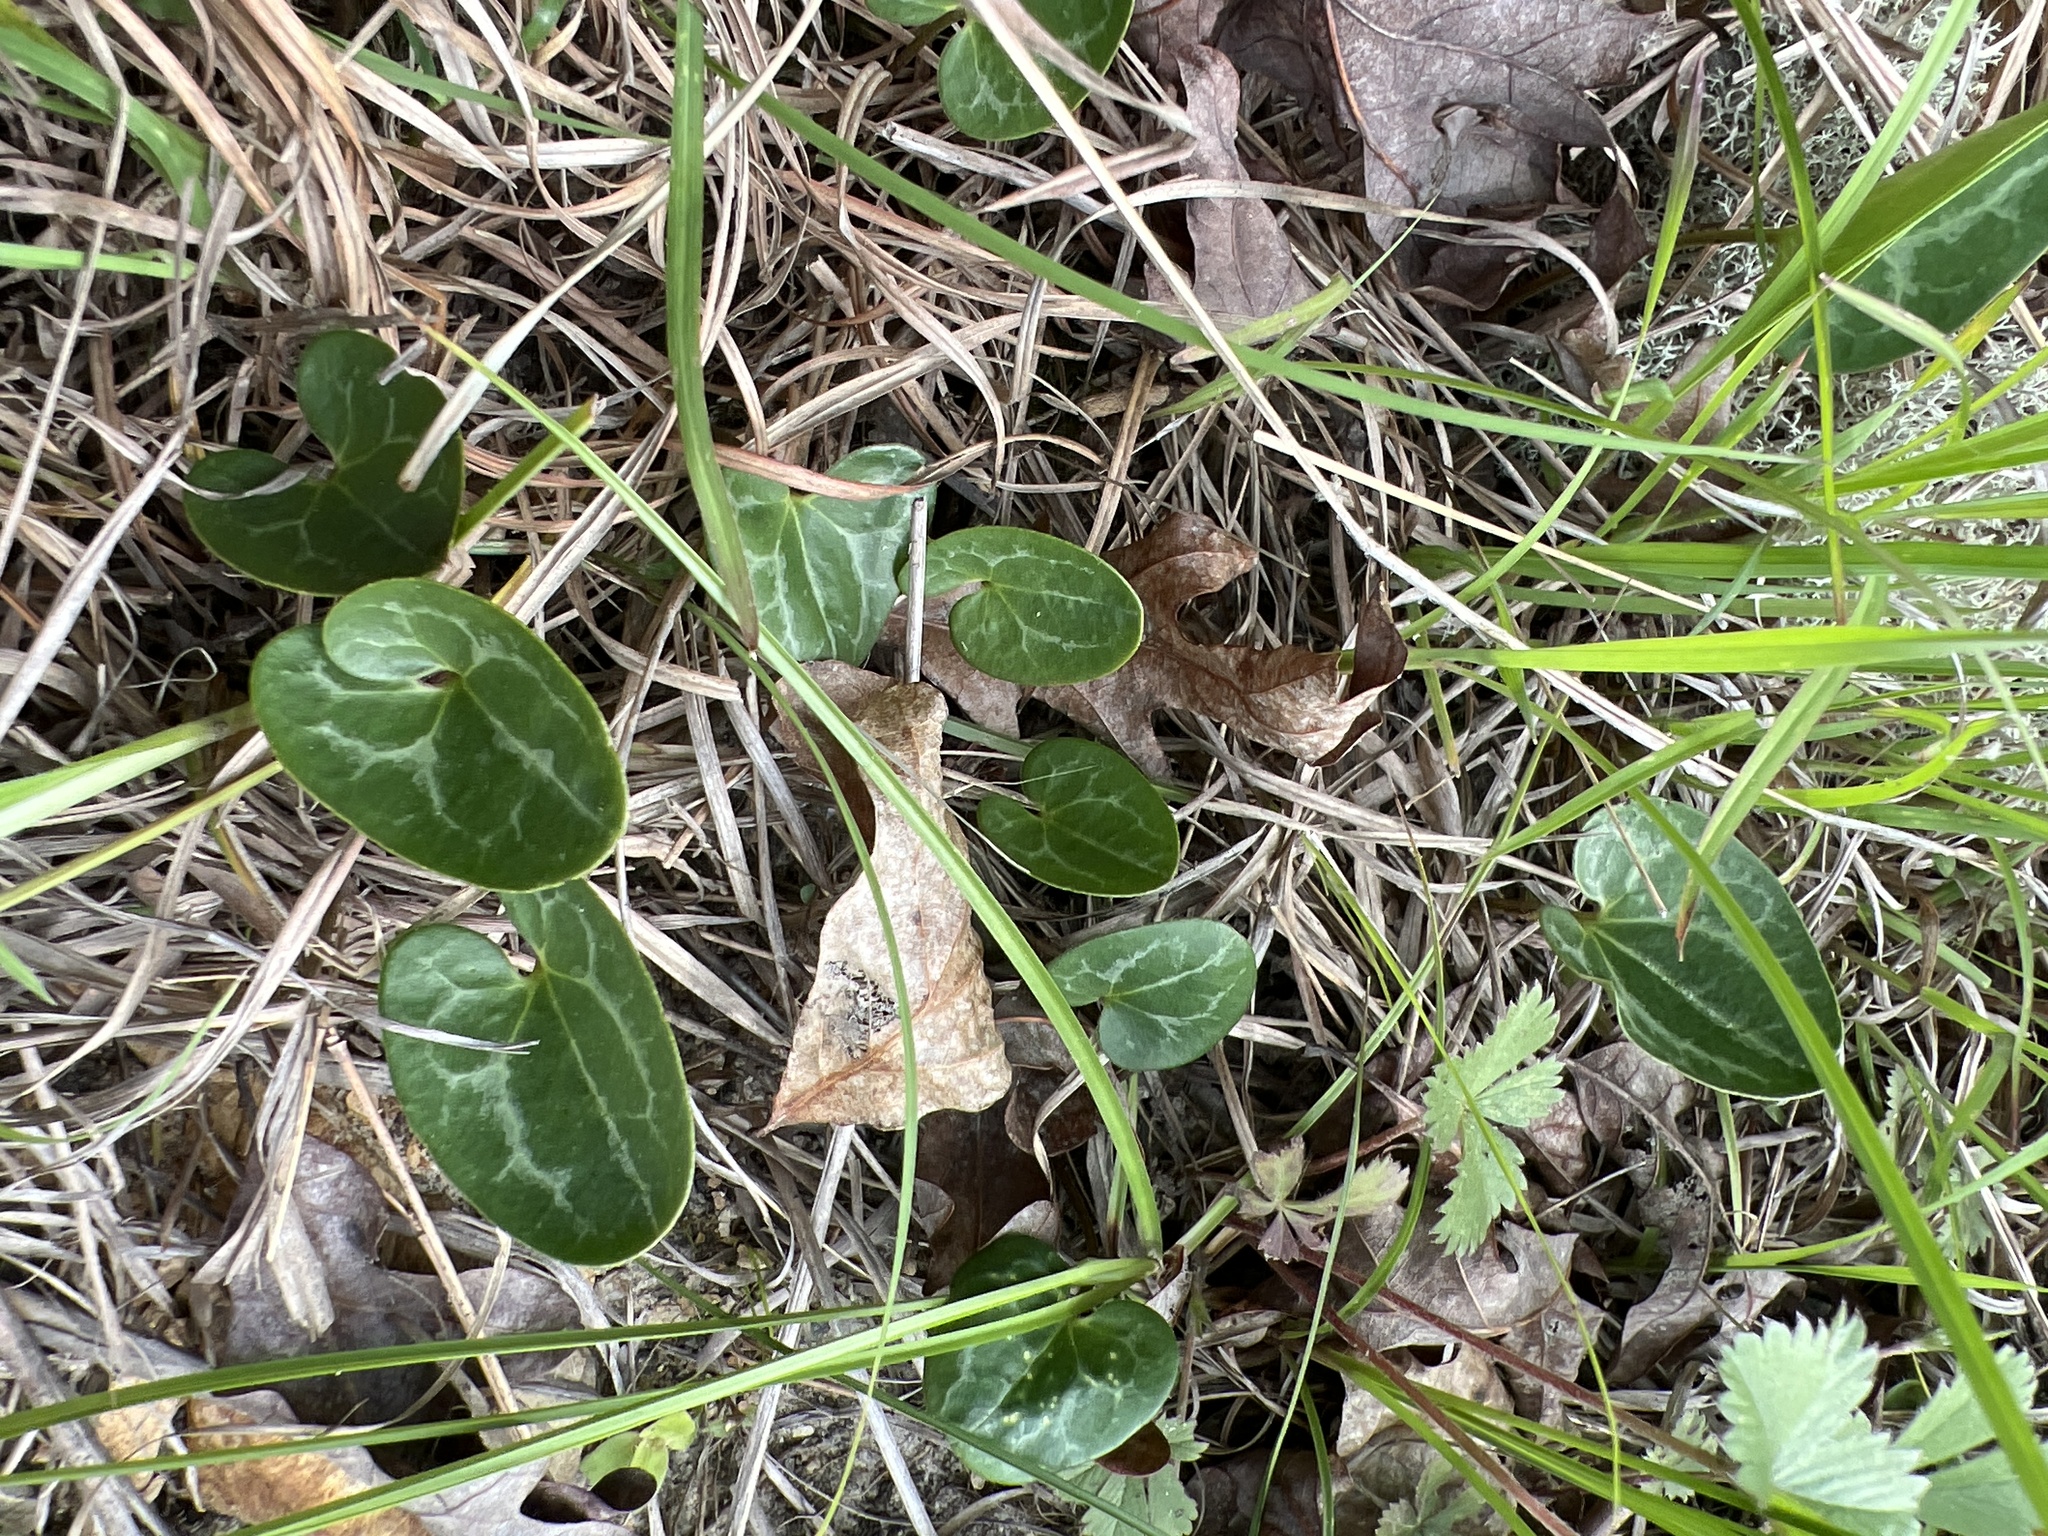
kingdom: Plantae
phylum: Tracheophyta
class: Magnoliopsida
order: Piperales
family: Aristolochiaceae
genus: Hexastylis
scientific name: Hexastylis lewisii
